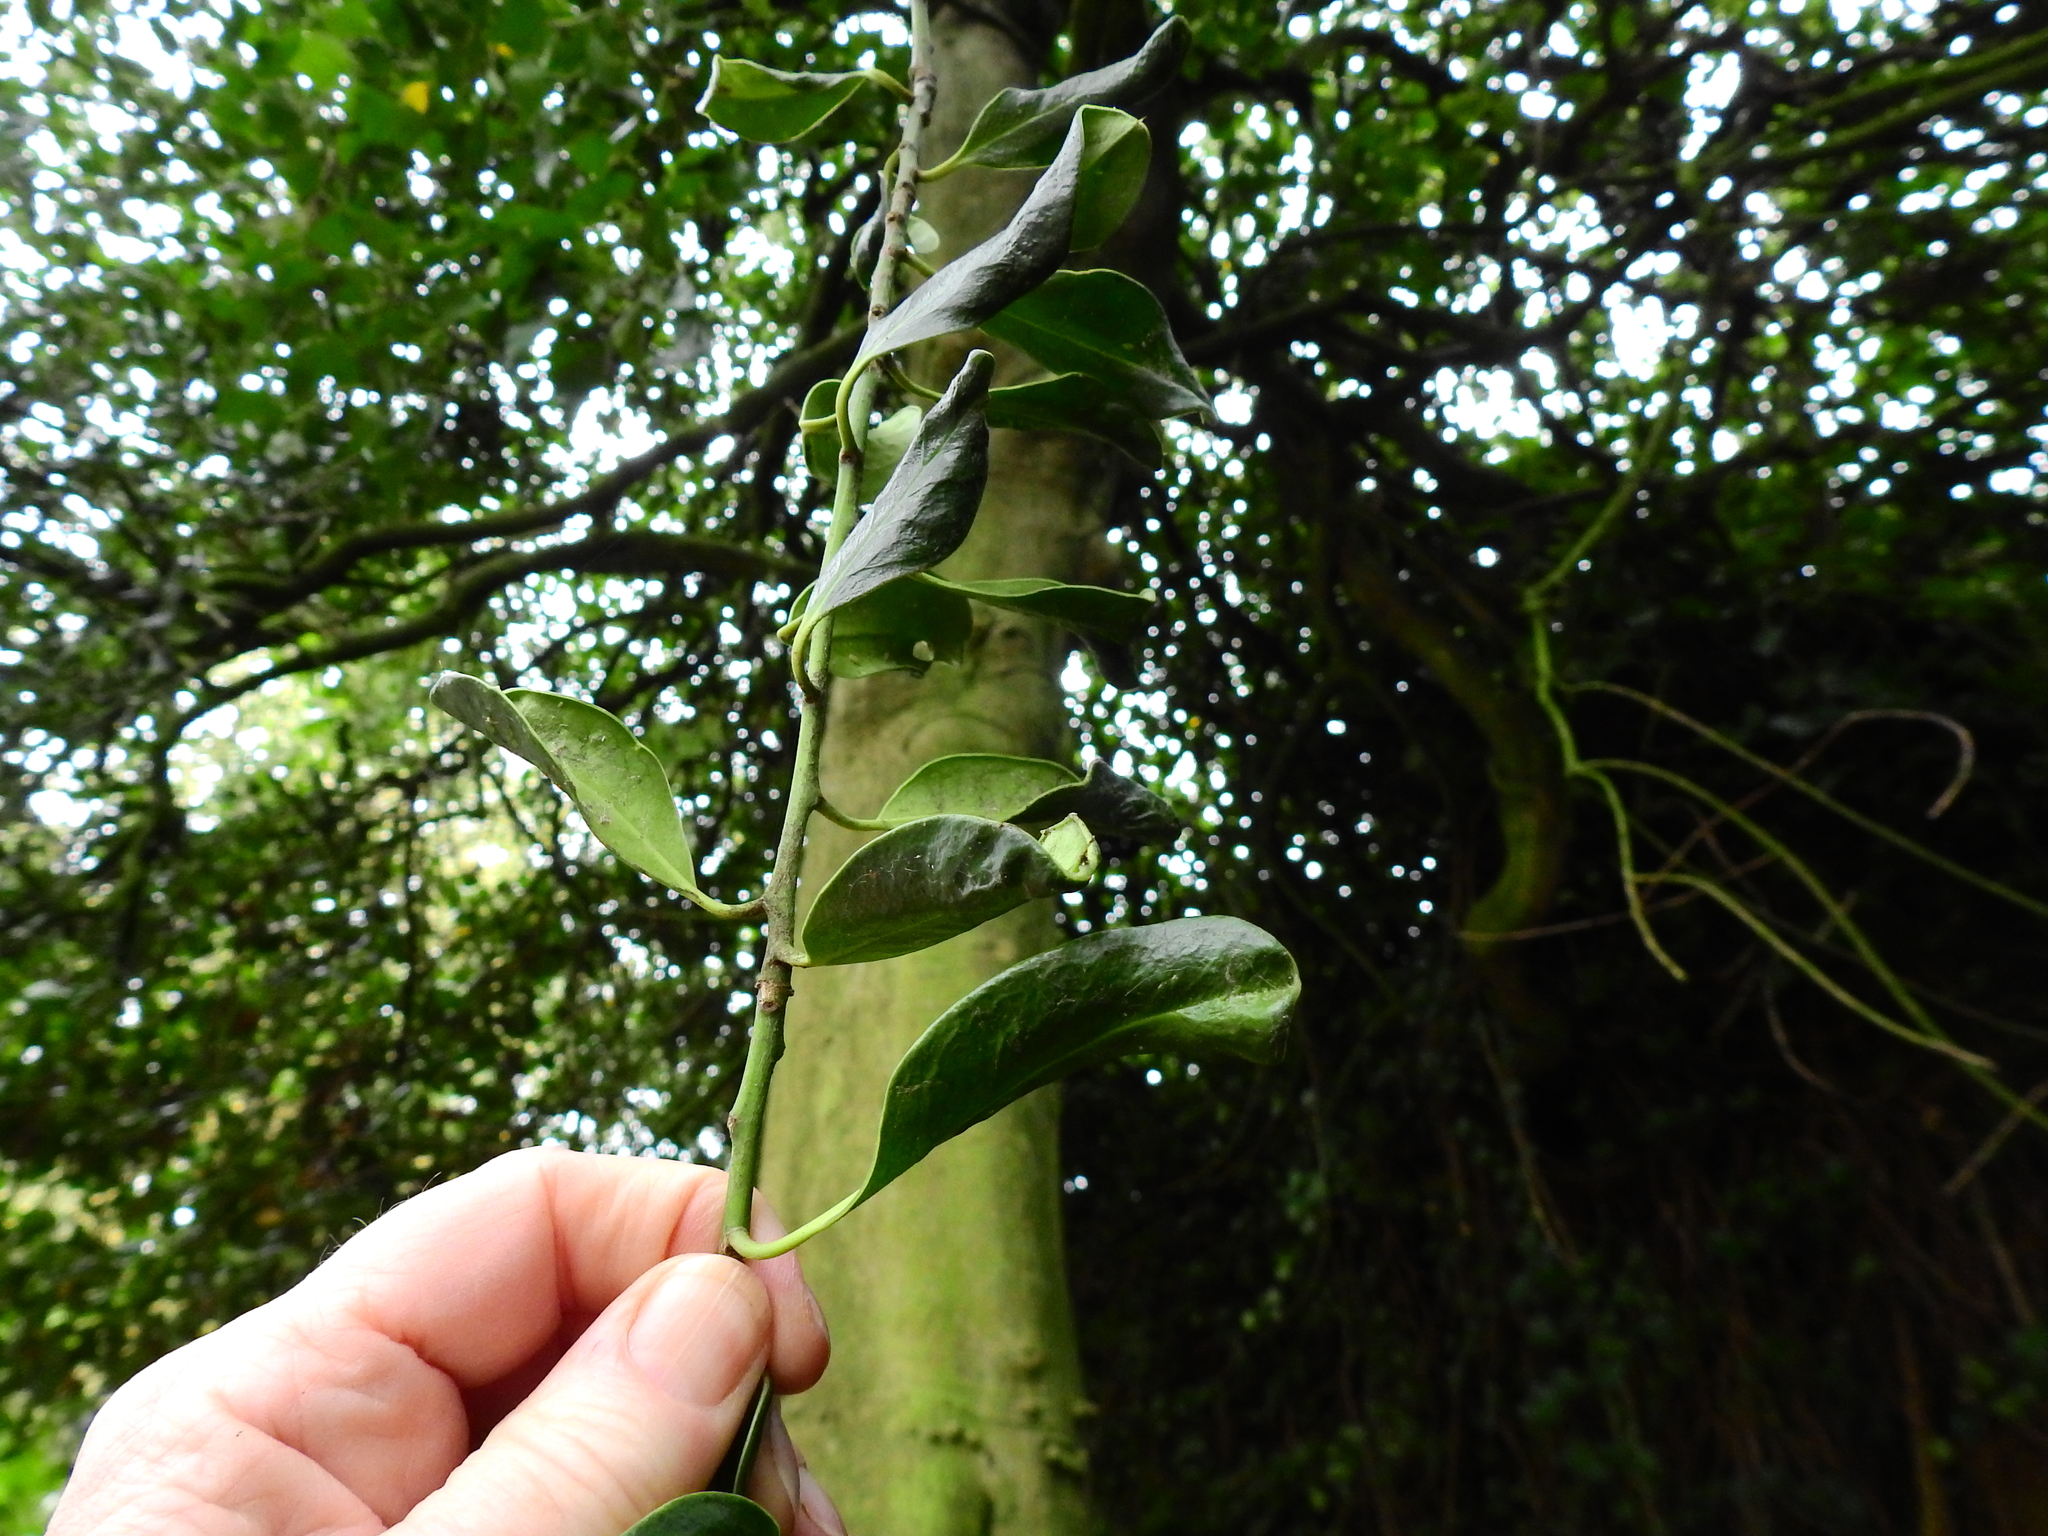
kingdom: Plantae
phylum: Tracheophyta
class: Magnoliopsida
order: Aquifoliales
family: Aquifoliaceae
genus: Ilex
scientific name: Ilex aquifolium
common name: English holly
